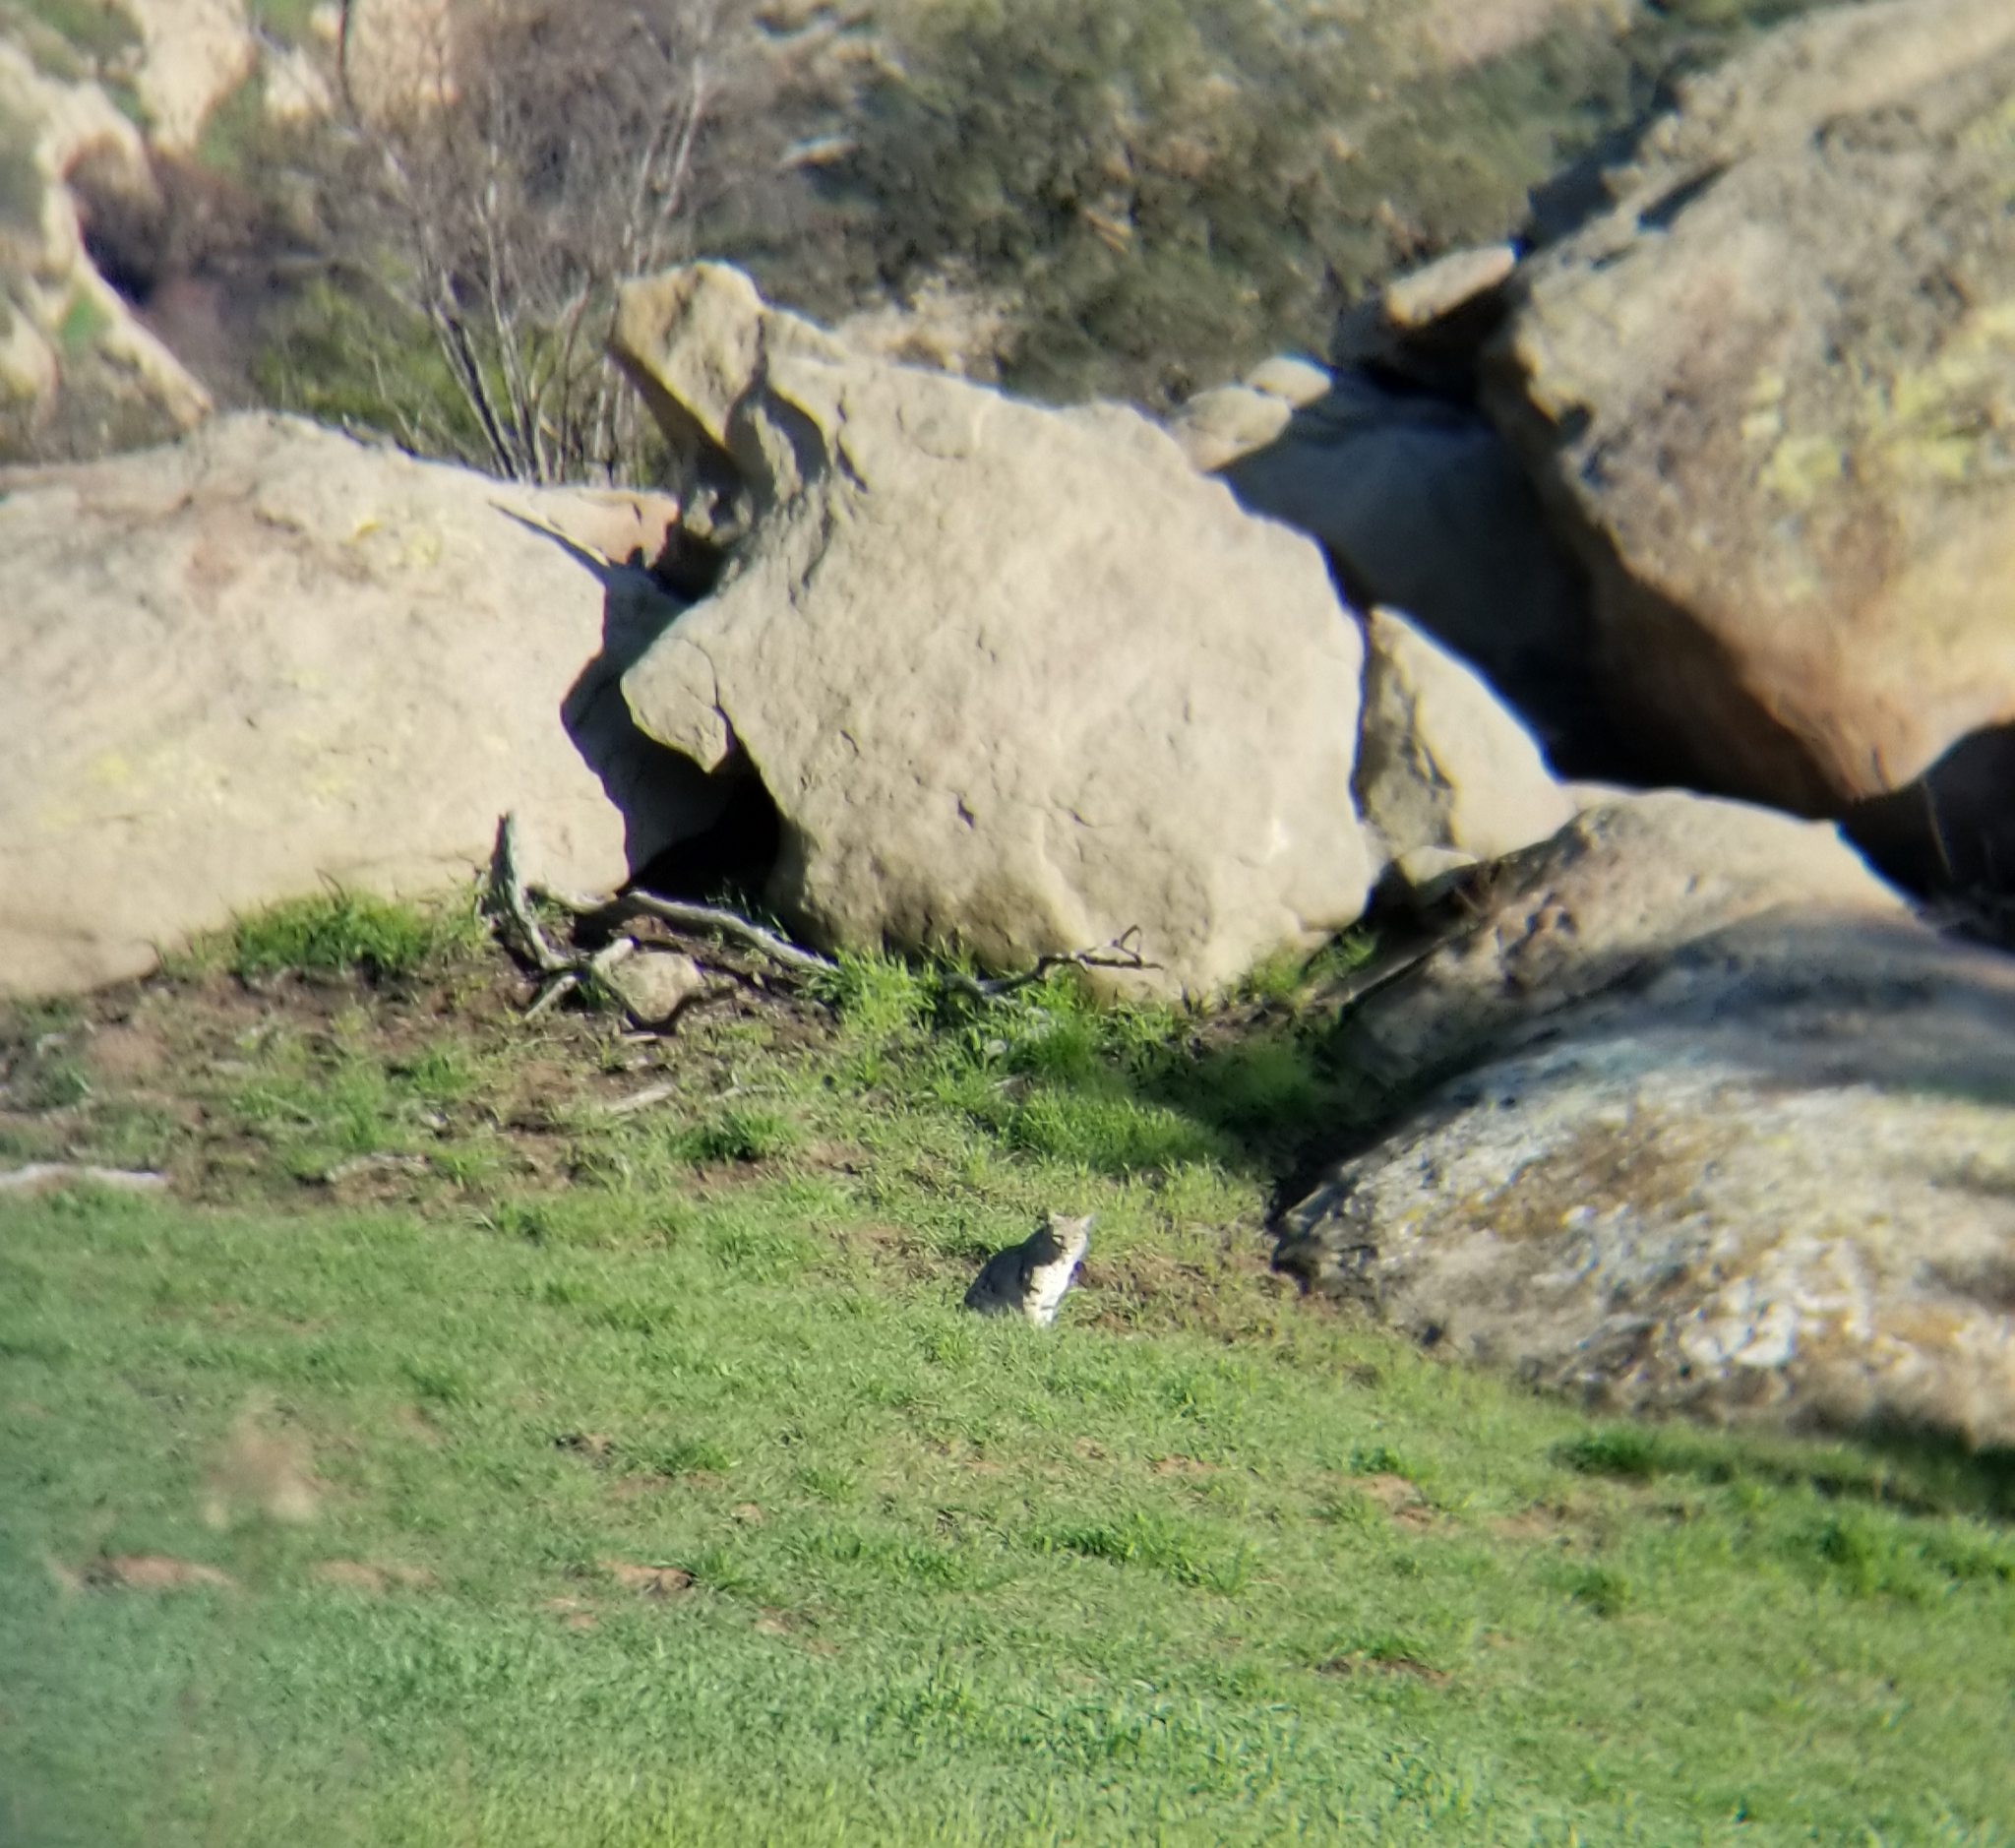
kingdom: Animalia
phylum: Chordata
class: Mammalia
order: Carnivora
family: Felidae
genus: Lynx
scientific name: Lynx rufus
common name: Bobcat
